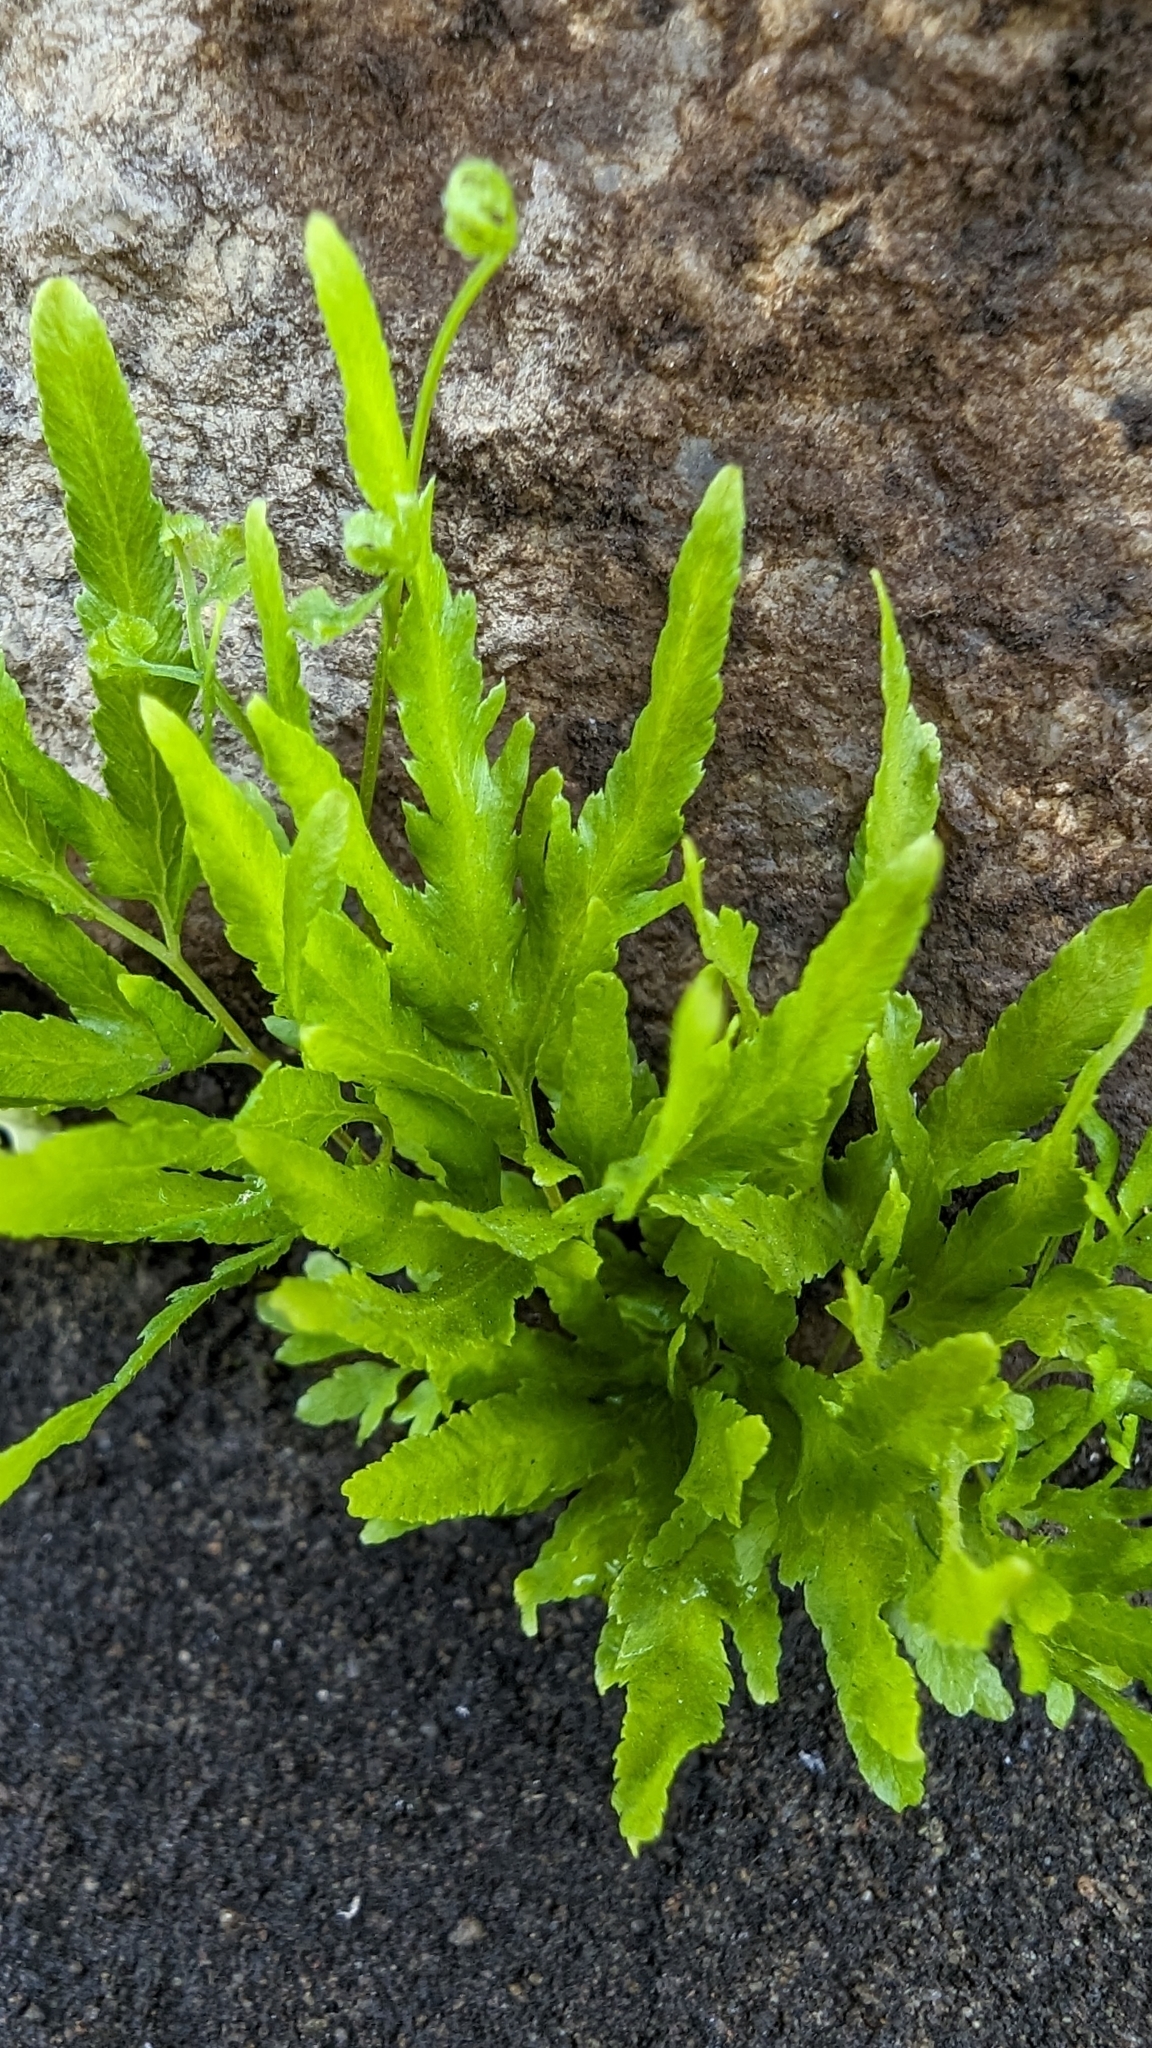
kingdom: Plantae
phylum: Tracheophyta
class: Polypodiopsida
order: Schizaeales
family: Lygodiaceae
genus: Lygodium
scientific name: Lygodium japonicum
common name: Japanese climbing fern
